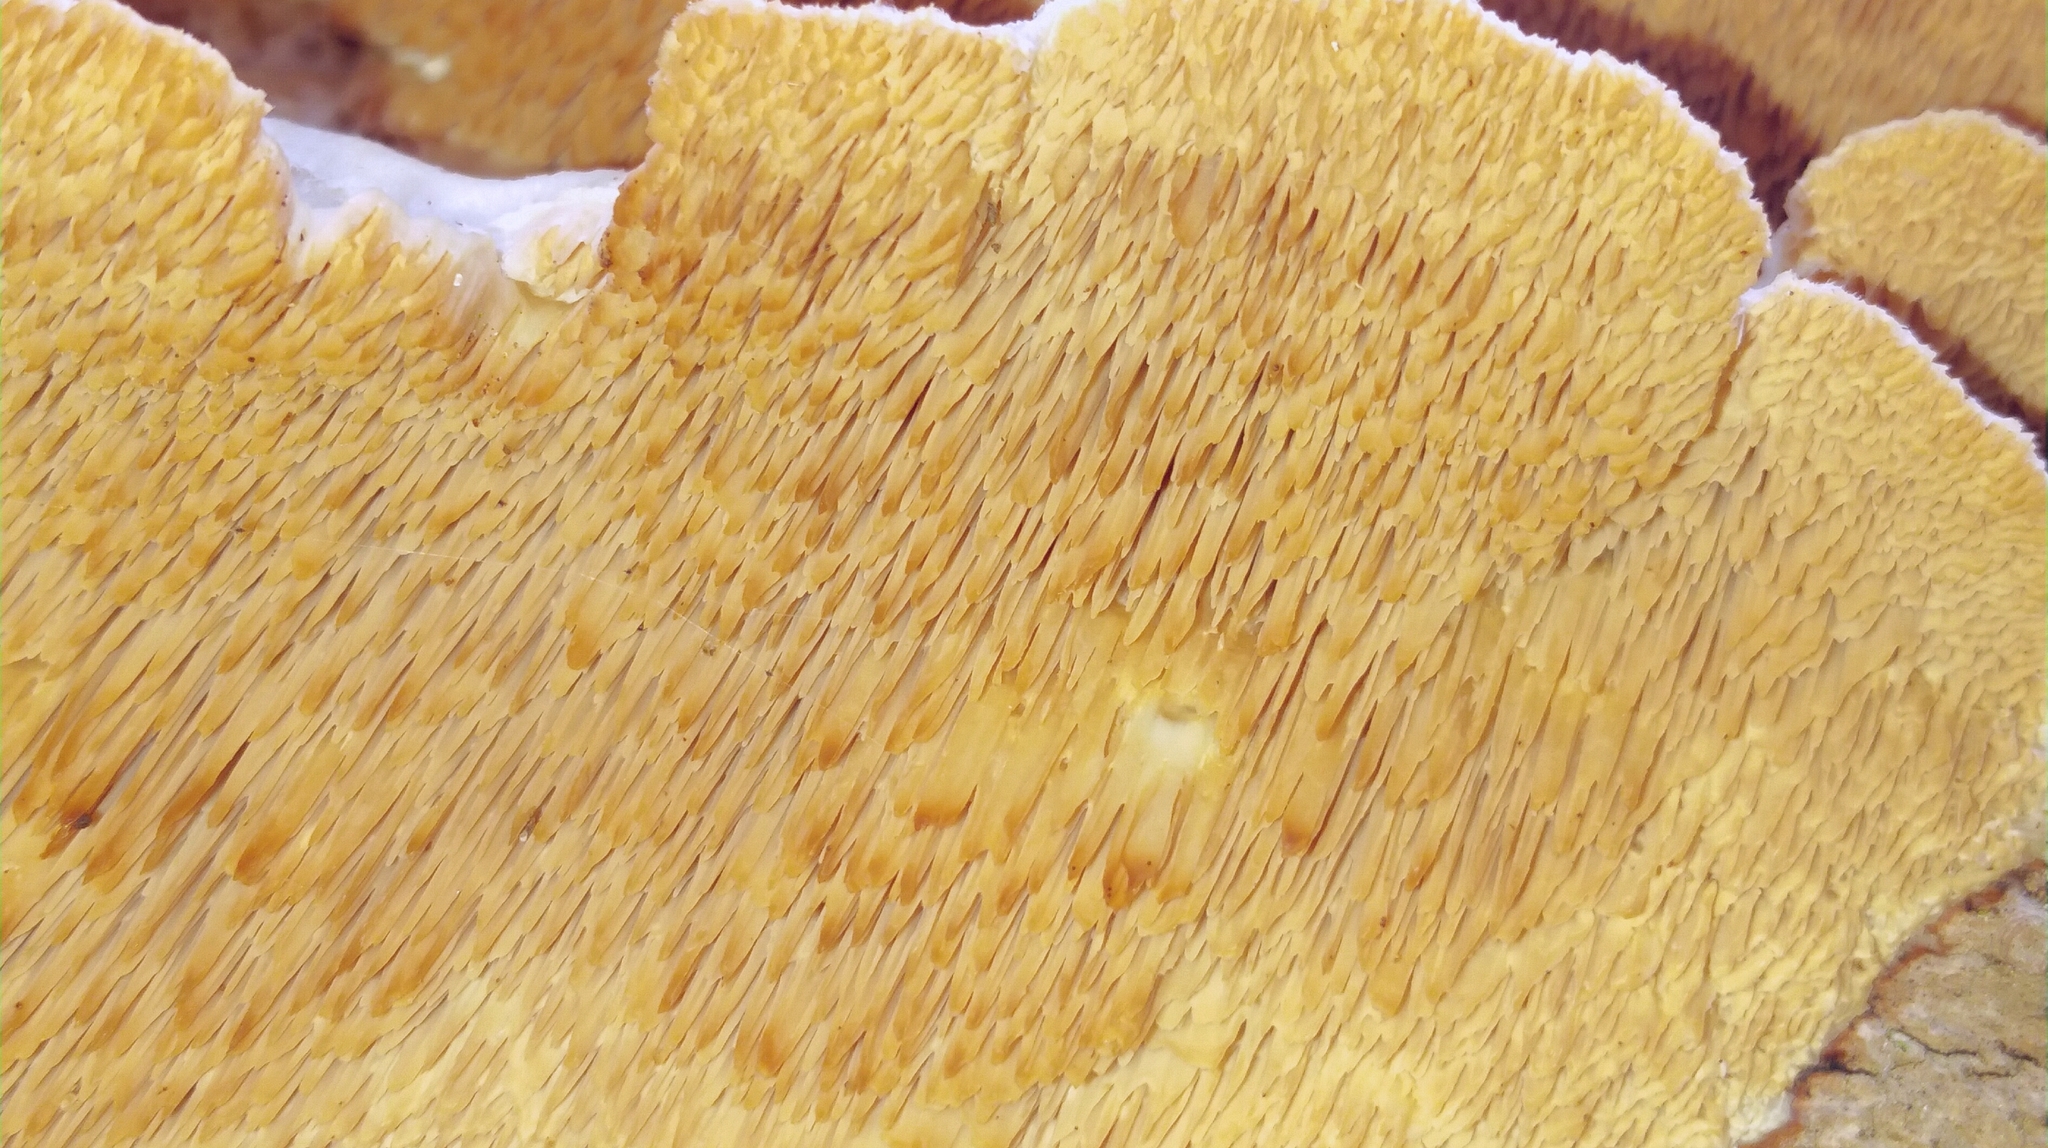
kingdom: Fungi
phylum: Basidiomycota
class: Agaricomycetes
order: Polyporales
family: Irpicaceae
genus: Irpex
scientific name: Irpex lacteus
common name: Milk-white toothed polypore
